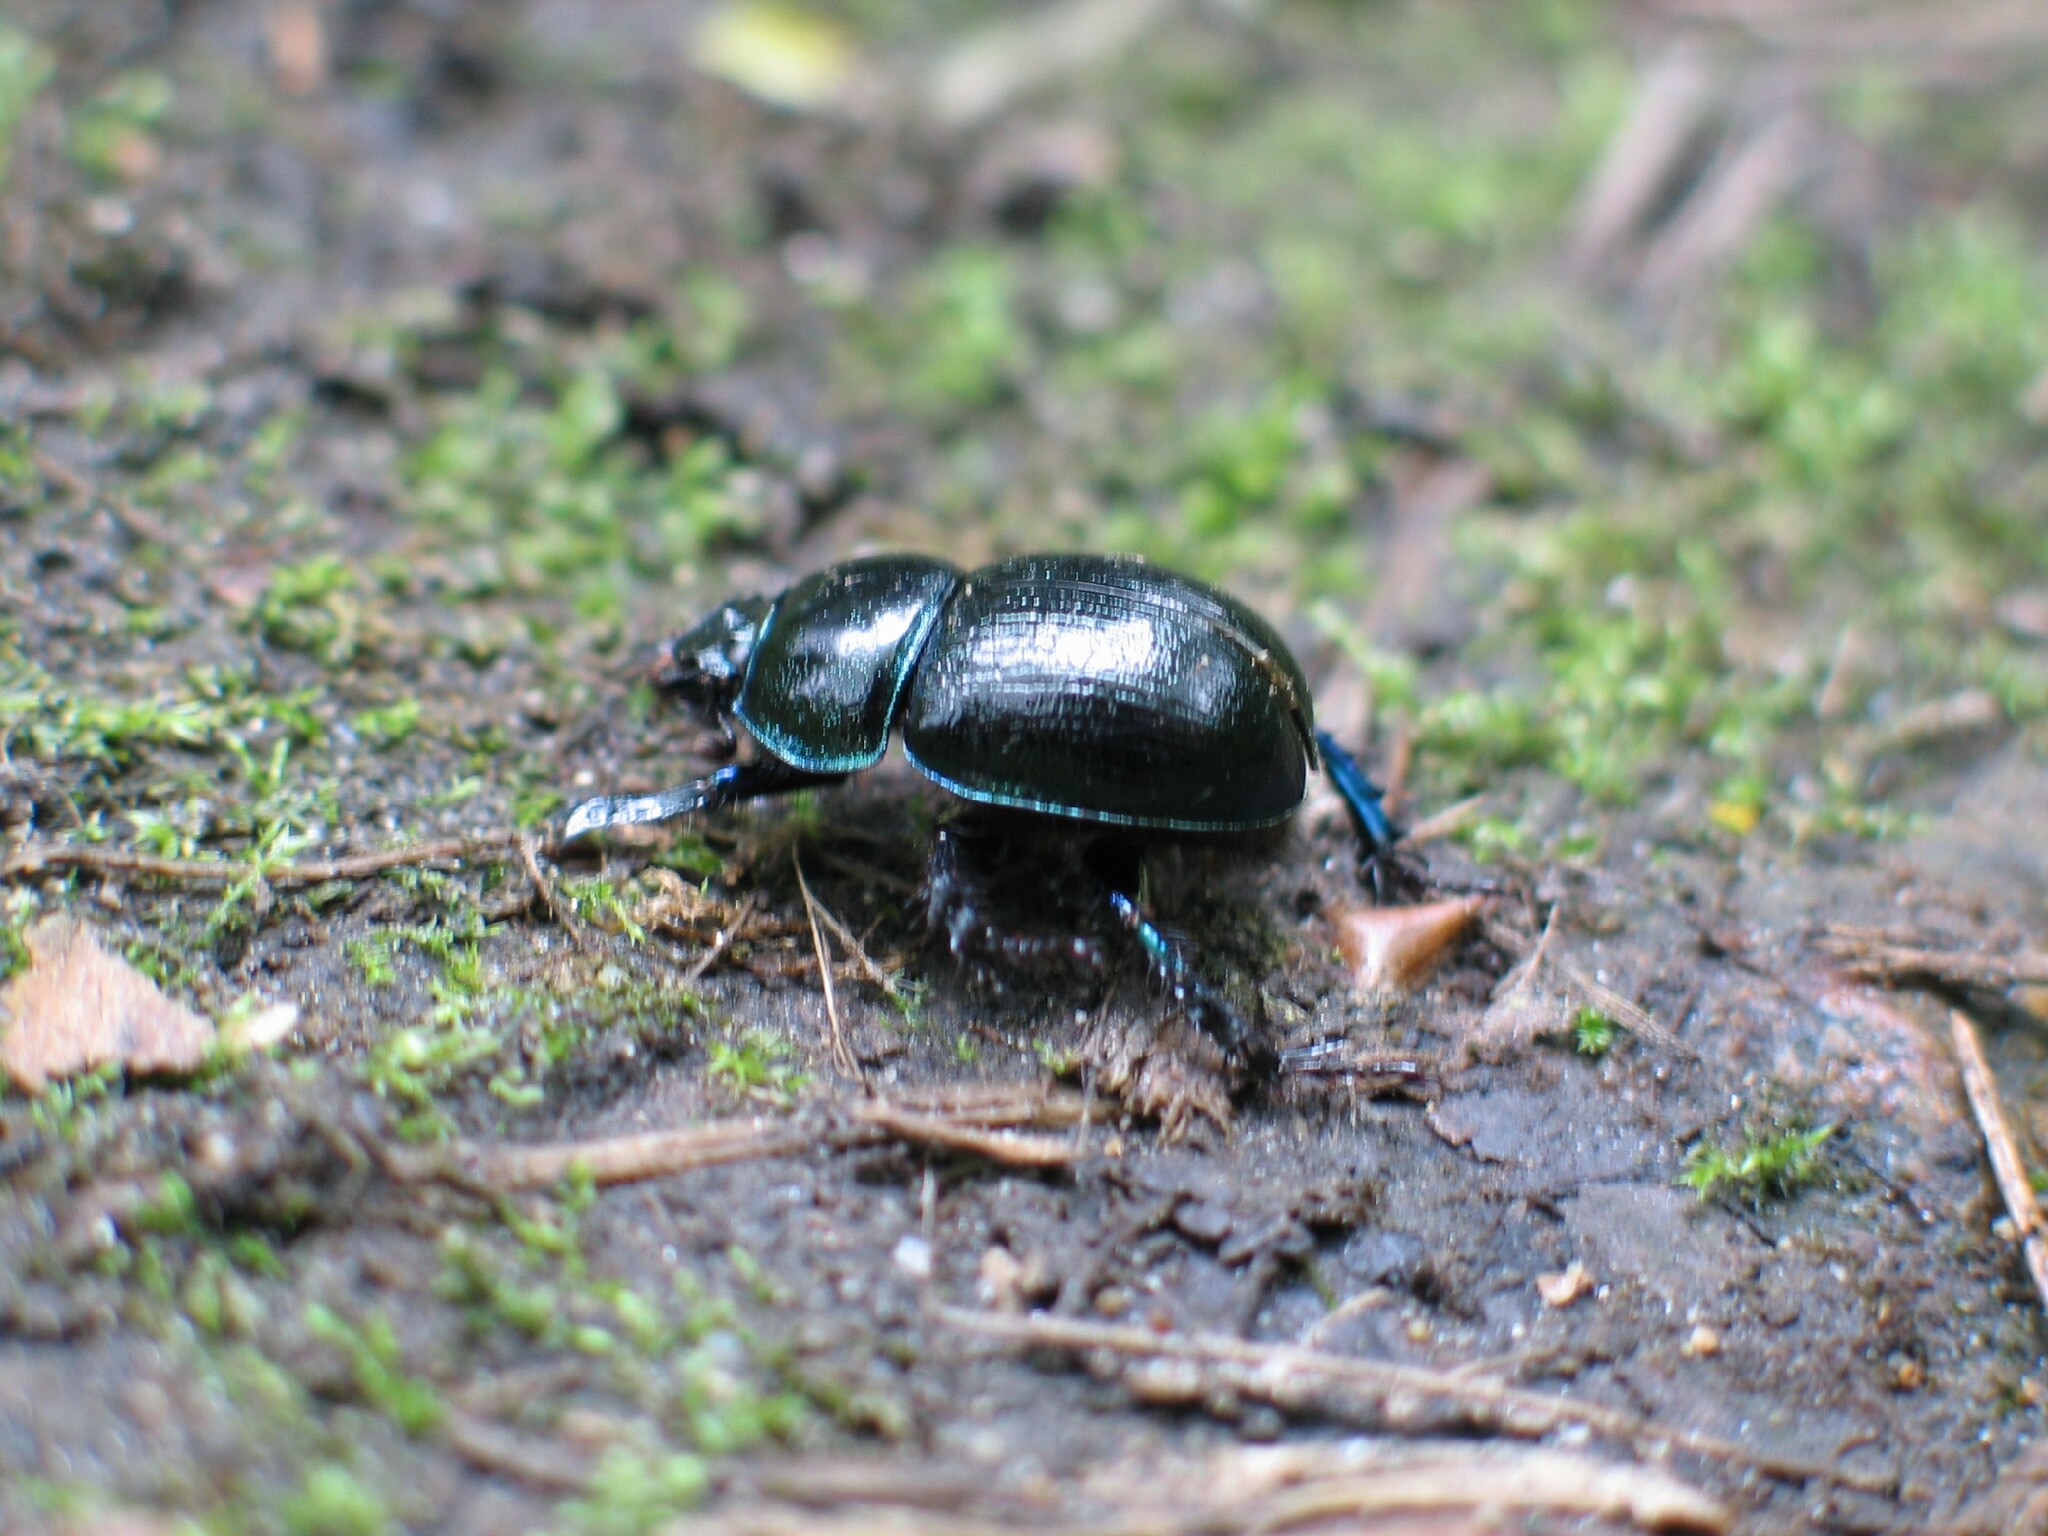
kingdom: Animalia
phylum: Arthropoda
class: Insecta
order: Coleoptera
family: Geotrupidae
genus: Anoplotrupes
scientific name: Anoplotrupes stercorosus
